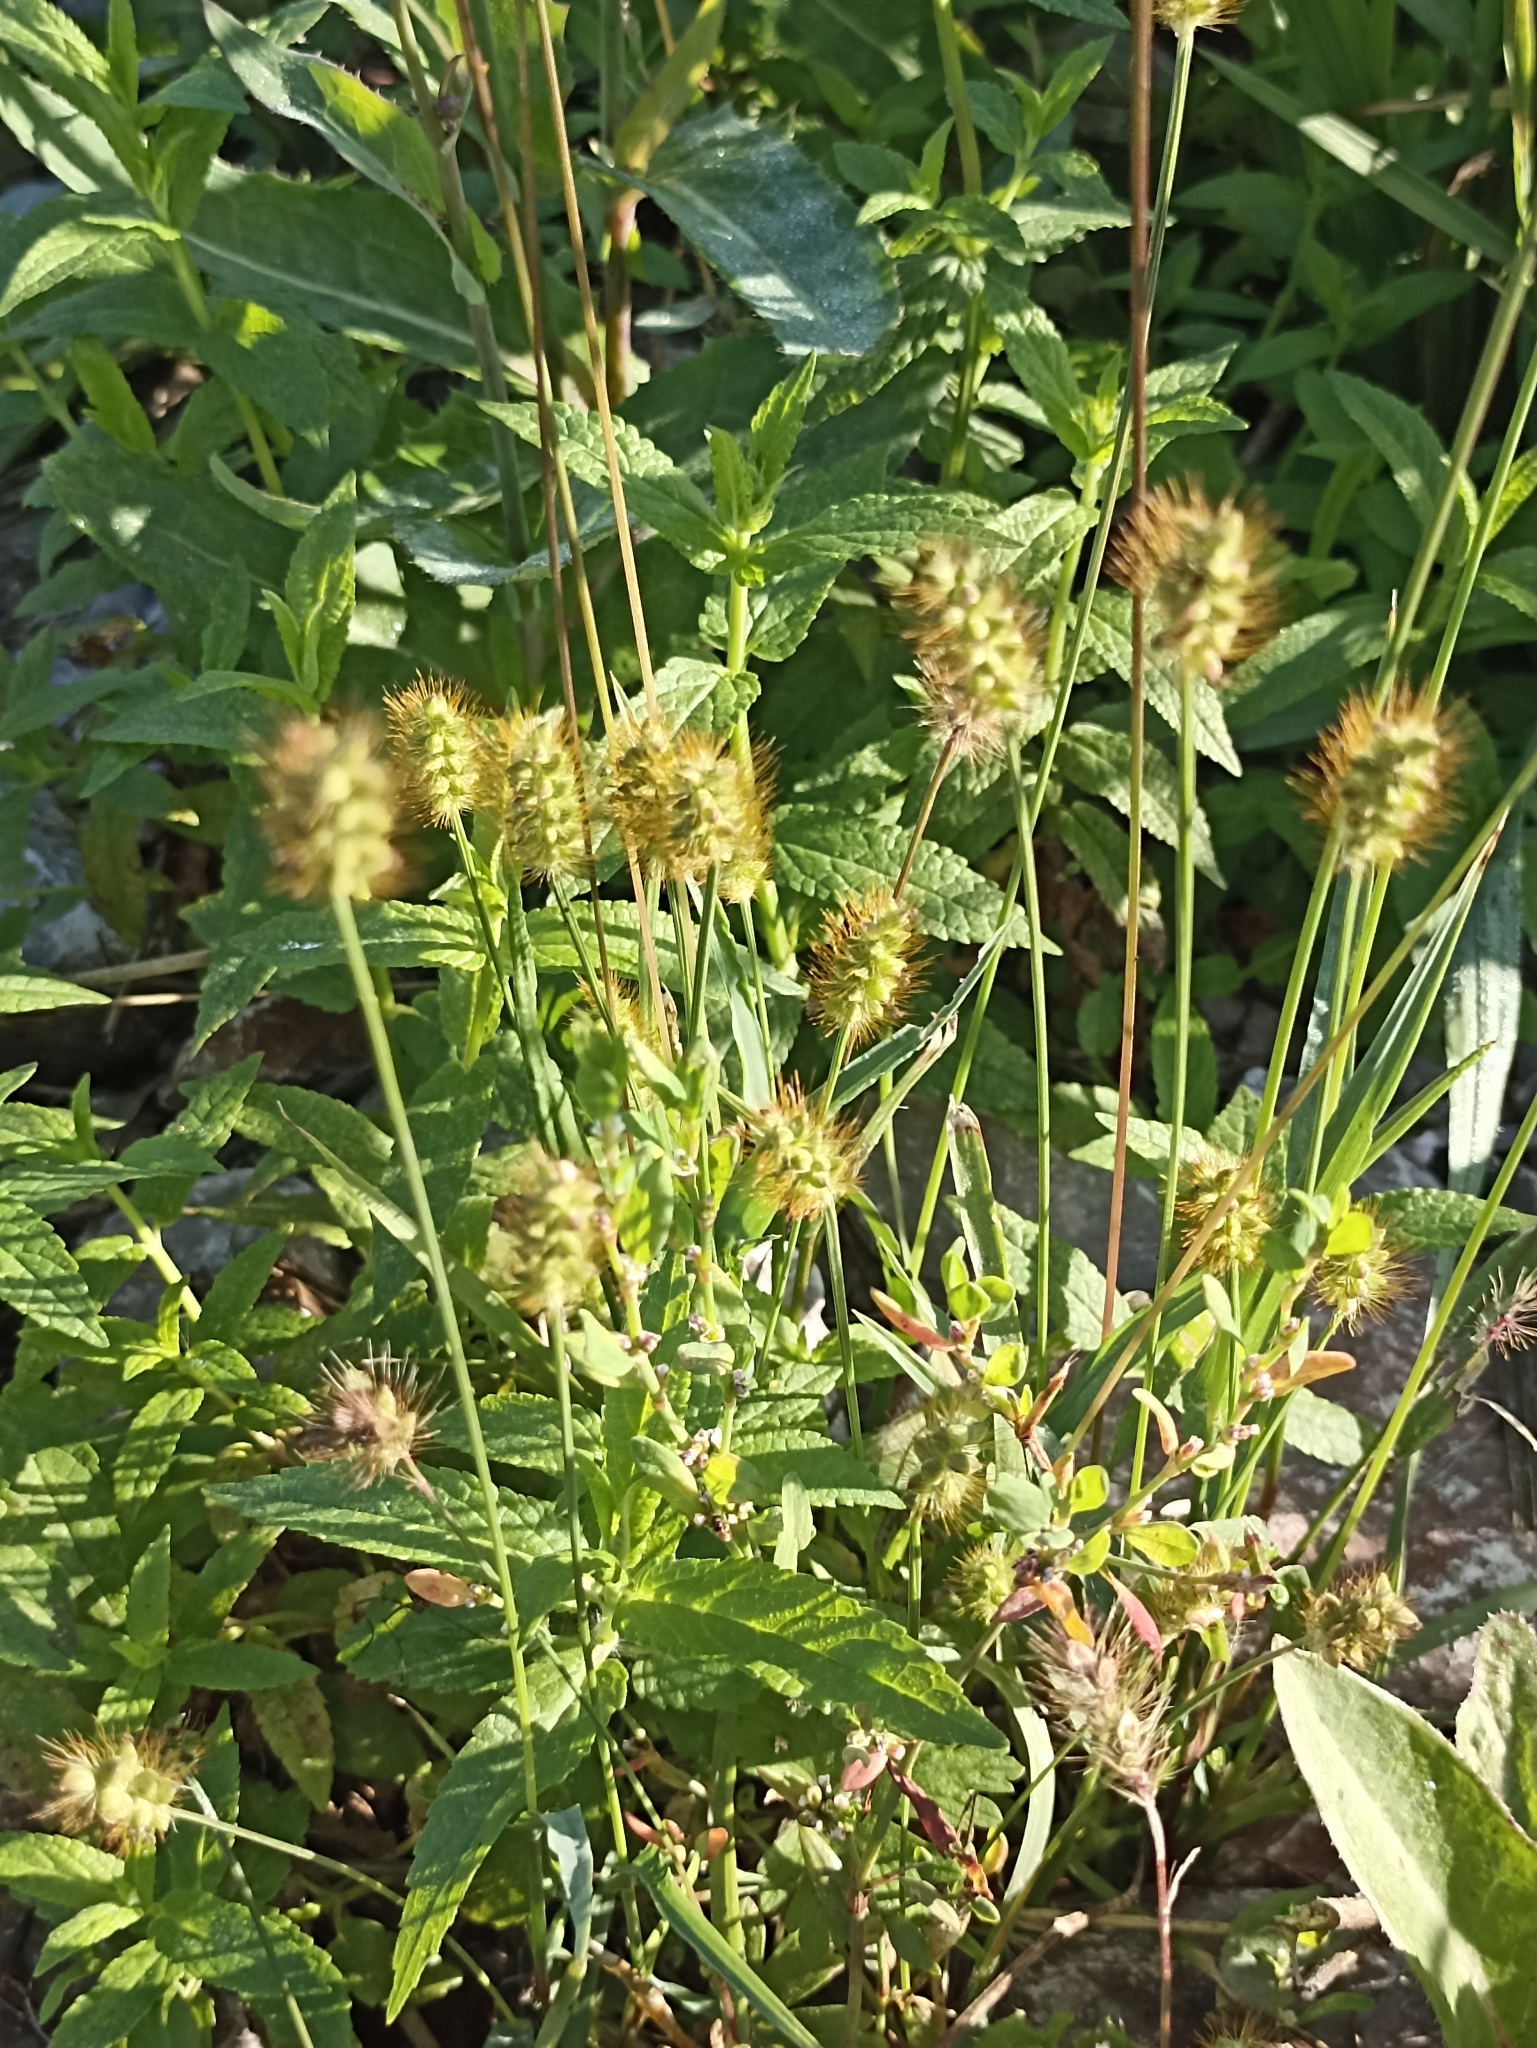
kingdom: Plantae
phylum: Tracheophyta
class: Liliopsida
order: Poales
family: Poaceae
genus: Setaria
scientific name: Setaria pumila
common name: Yellow bristle-grass
